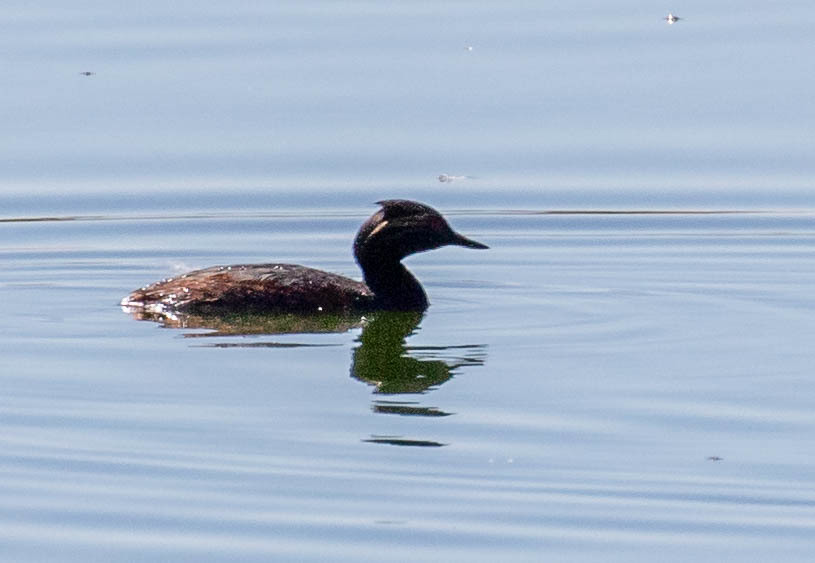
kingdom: Animalia
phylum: Chordata
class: Aves
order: Podicipediformes
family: Podicipedidae
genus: Podiceps
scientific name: Podiceps nigricollis
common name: Black-necked grebe
